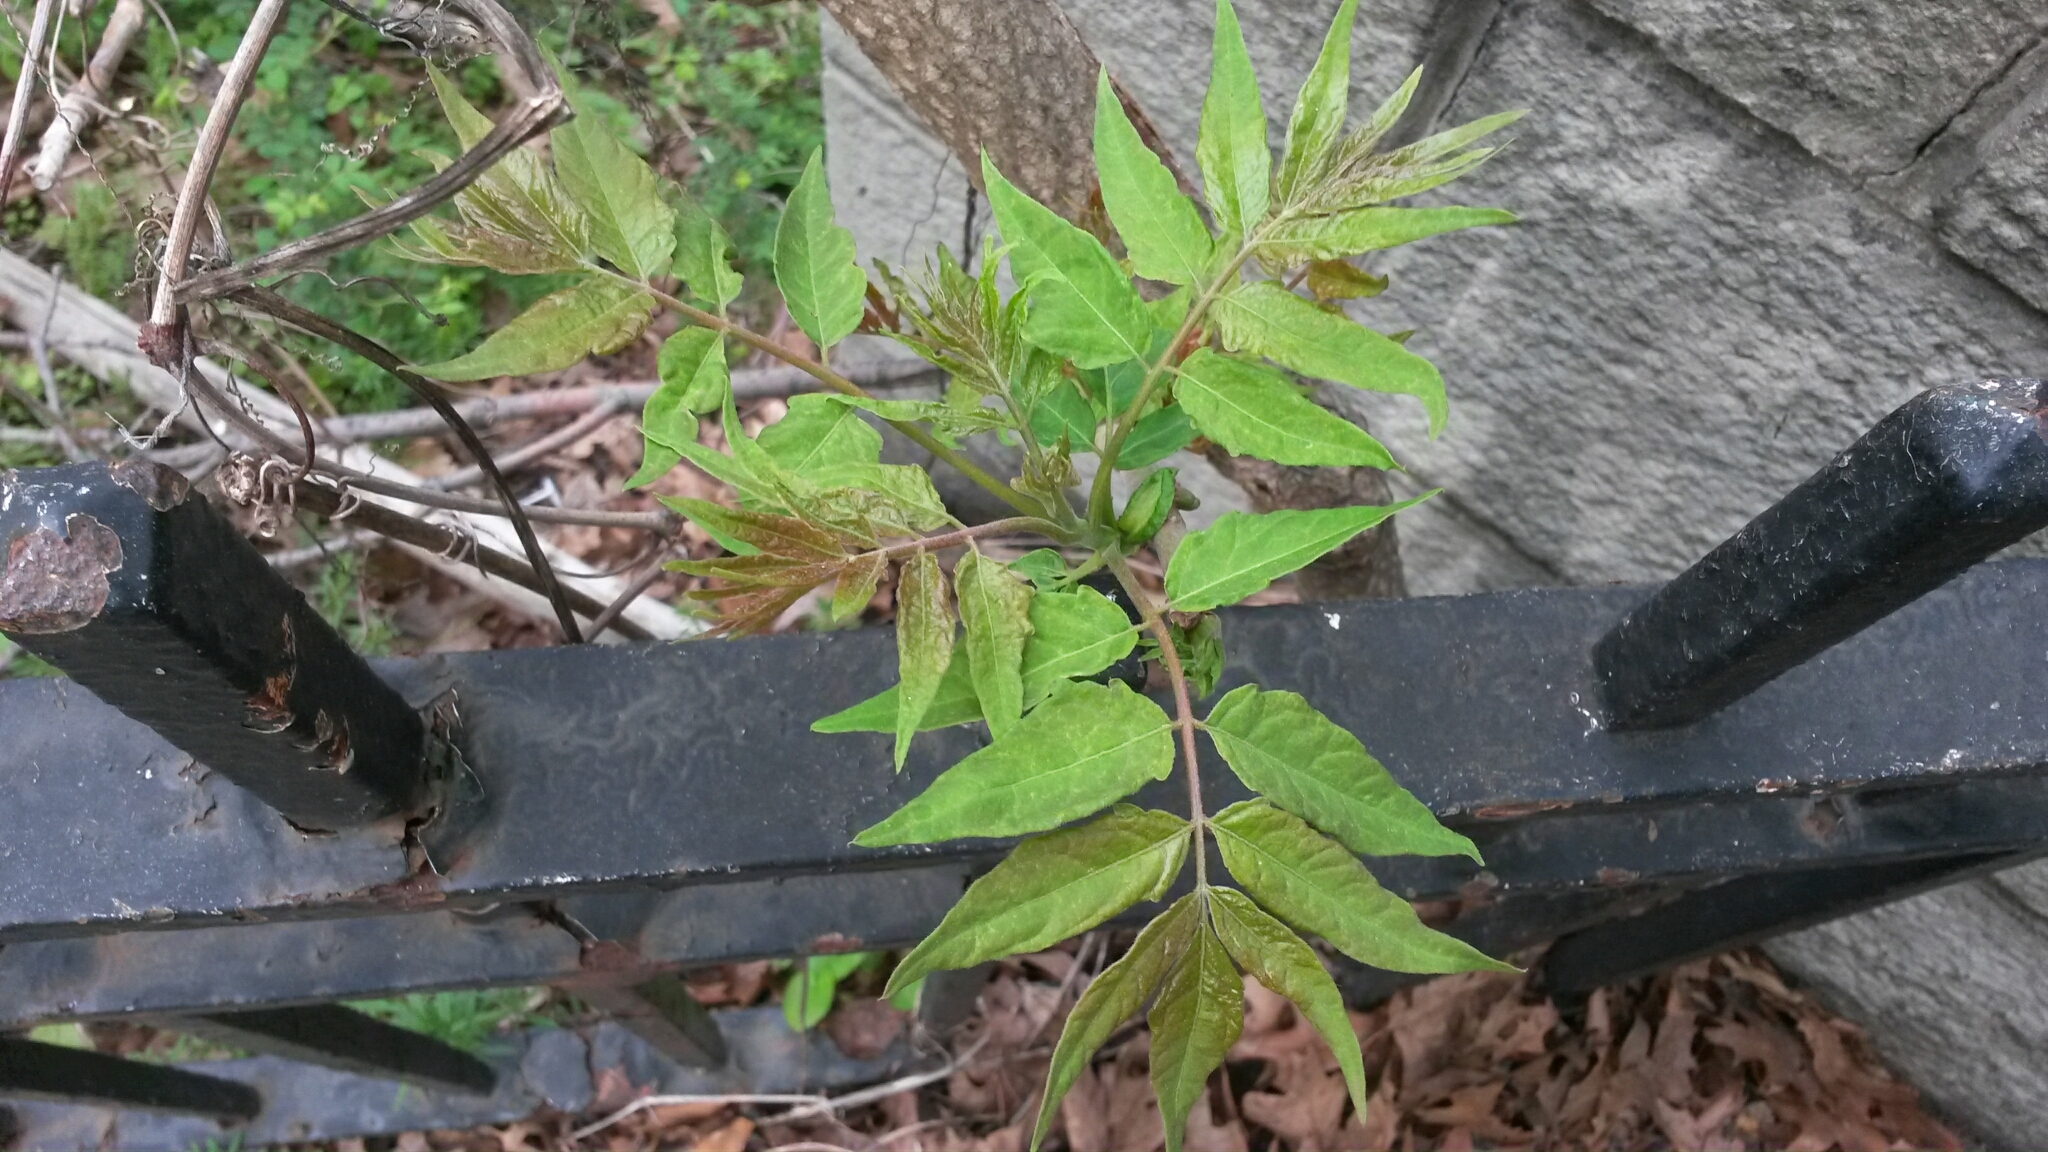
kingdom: Plantae
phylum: Tracheophyta
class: Magnoliopsida
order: Sapindales
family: Simaroubaceae
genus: Ailanthus
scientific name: Ailanthus altissima
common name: Tree-of-heaven
